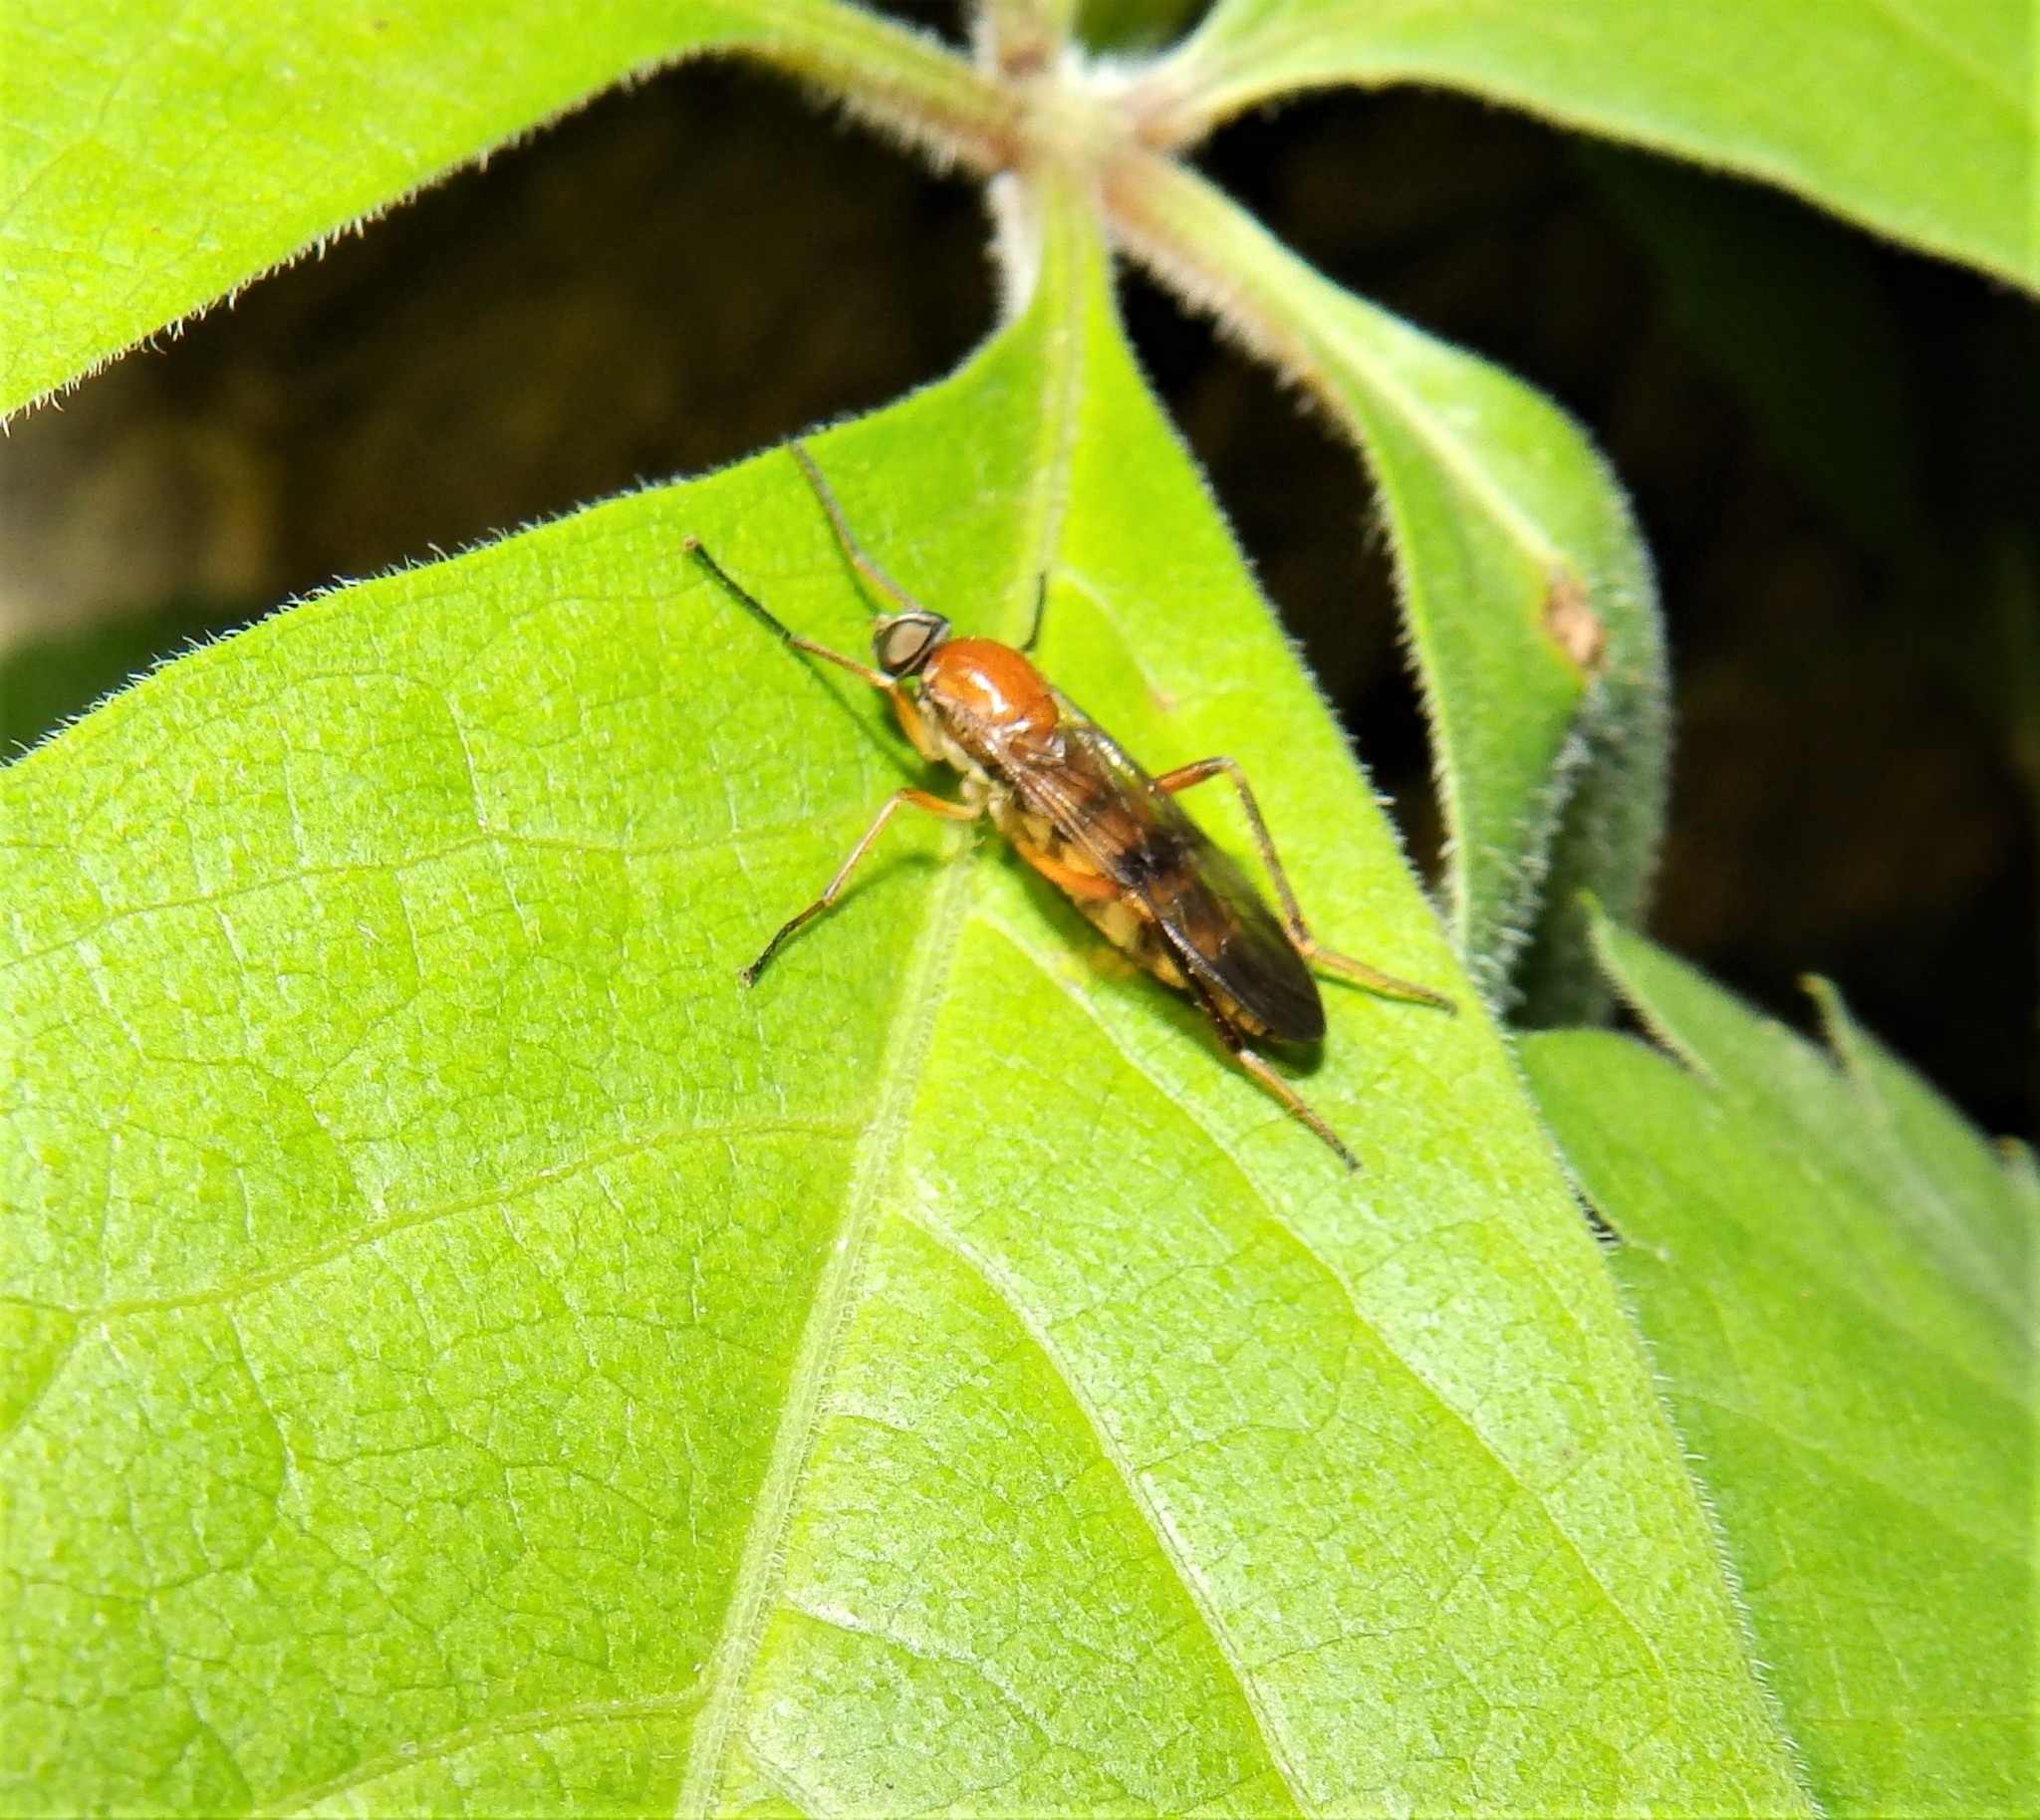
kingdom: Animalia
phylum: Arthropoda
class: Insecta
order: Diptera
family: Xylophagidae
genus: Dialysis
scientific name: Dialysis fasciventris
